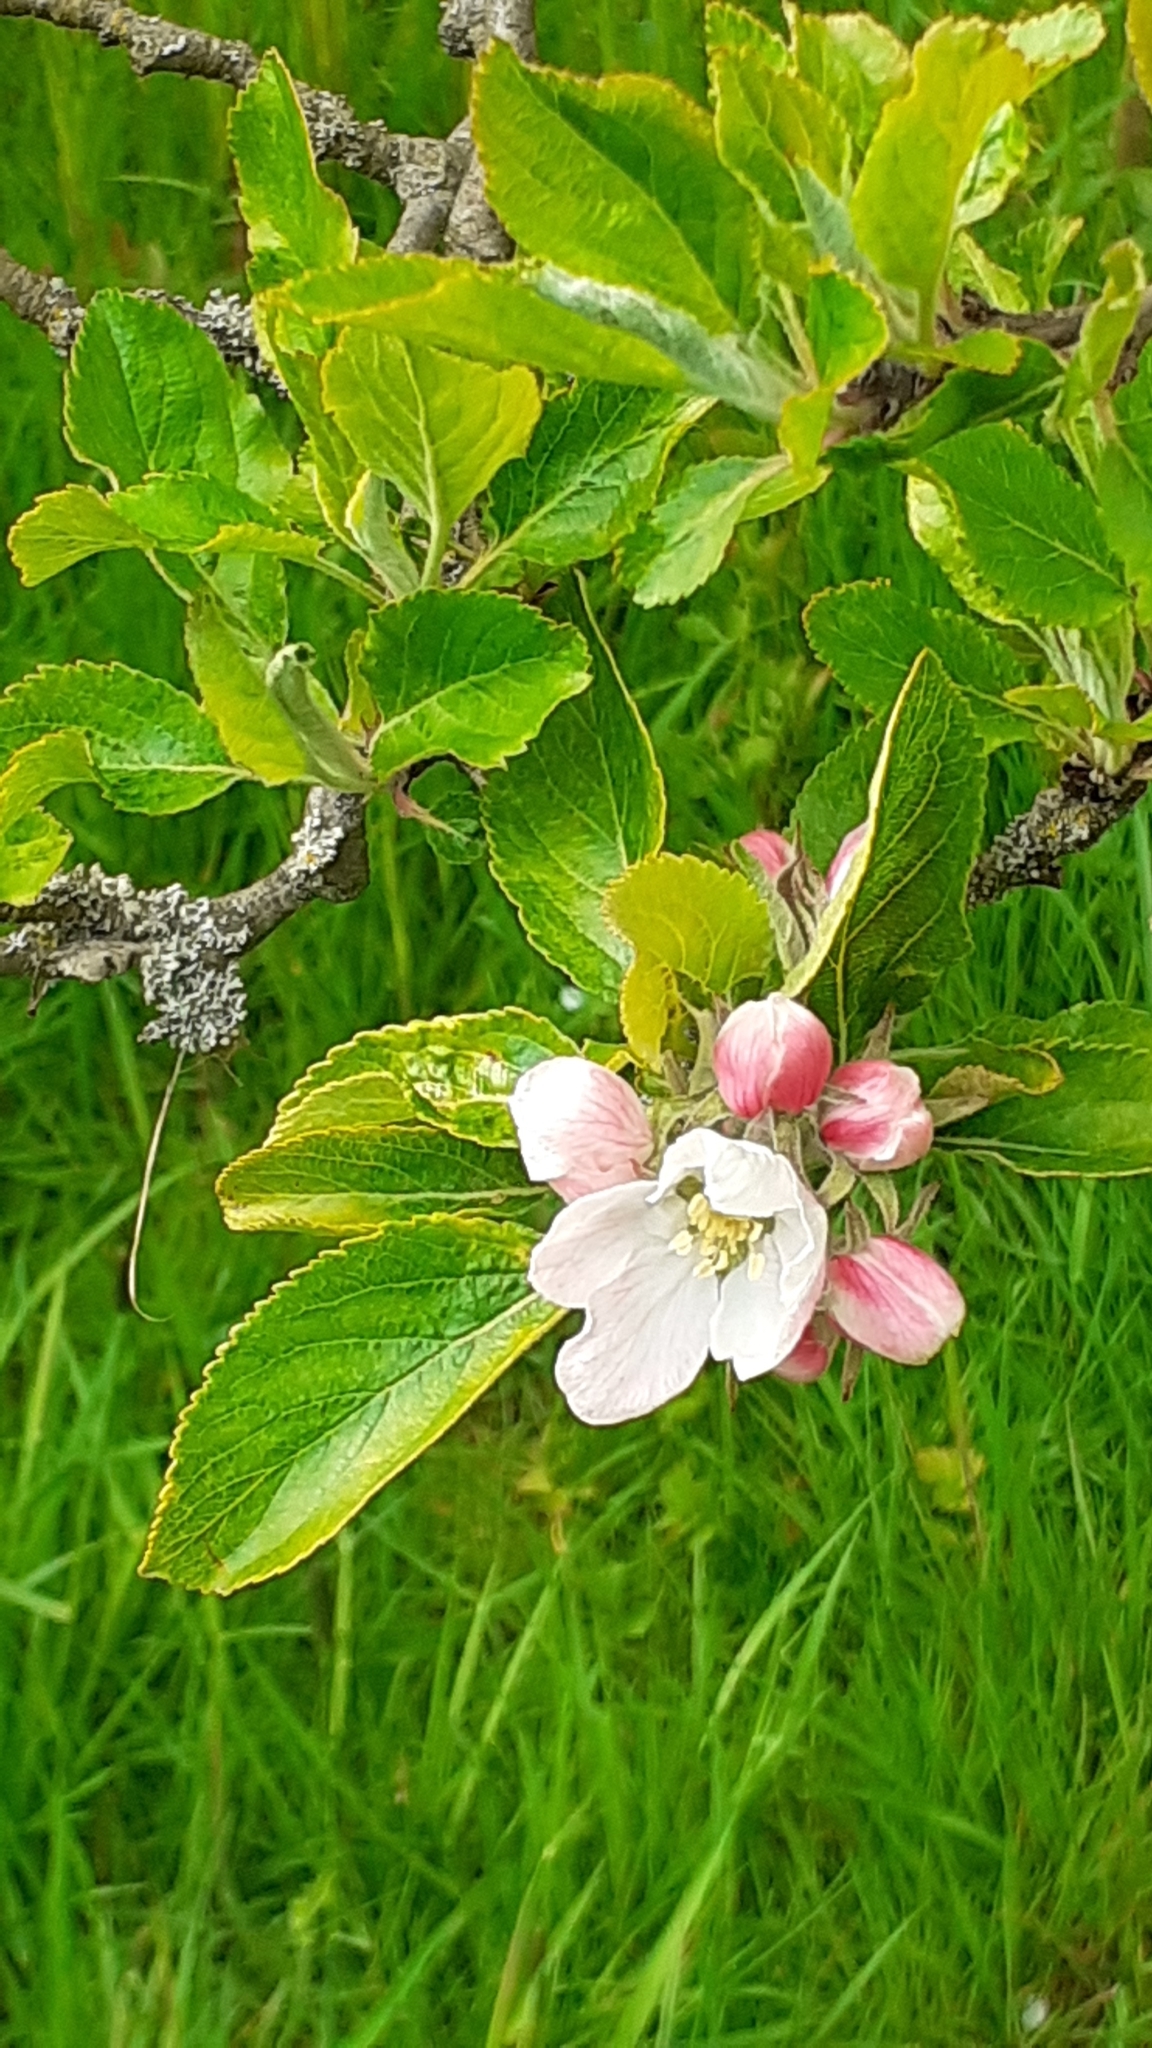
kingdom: Plantae
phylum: Tracheophyta
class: Magnoliopsida
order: Rosales
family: Rosaceae
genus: Malus
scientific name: Malus domestica
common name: Apple
